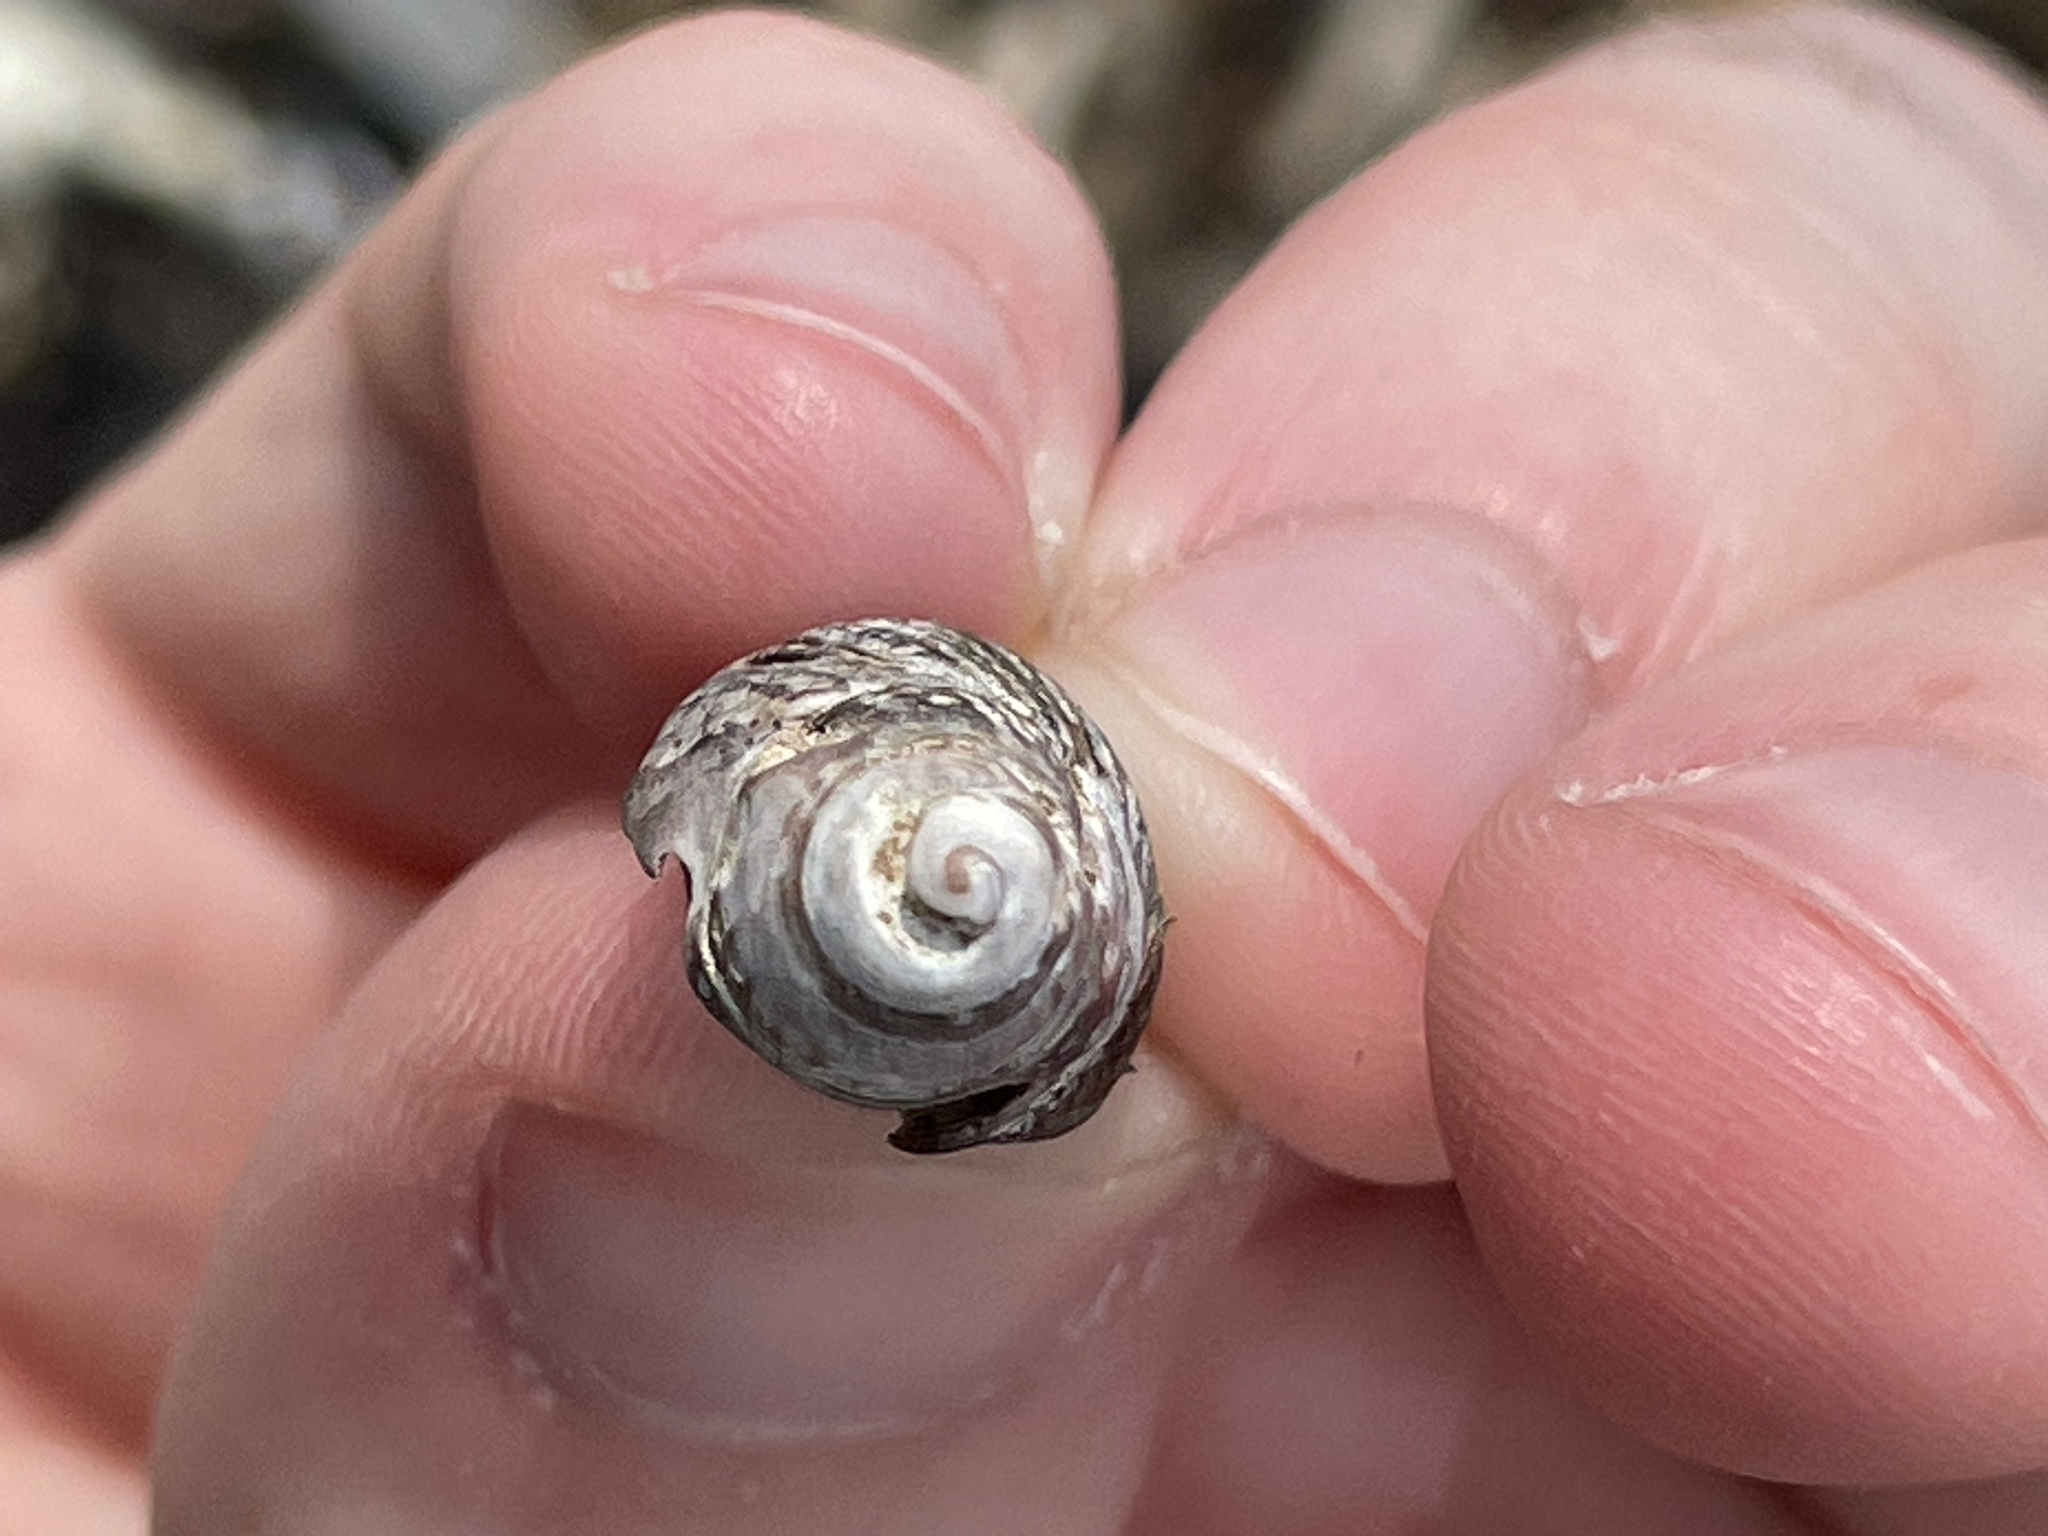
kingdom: Animalia
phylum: Mollusca
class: Gastropoda
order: Neogastropoda
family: Nassariidae
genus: Ilyanassa
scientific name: Ilyanassa obsoleta
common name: Eastern mudsnail
